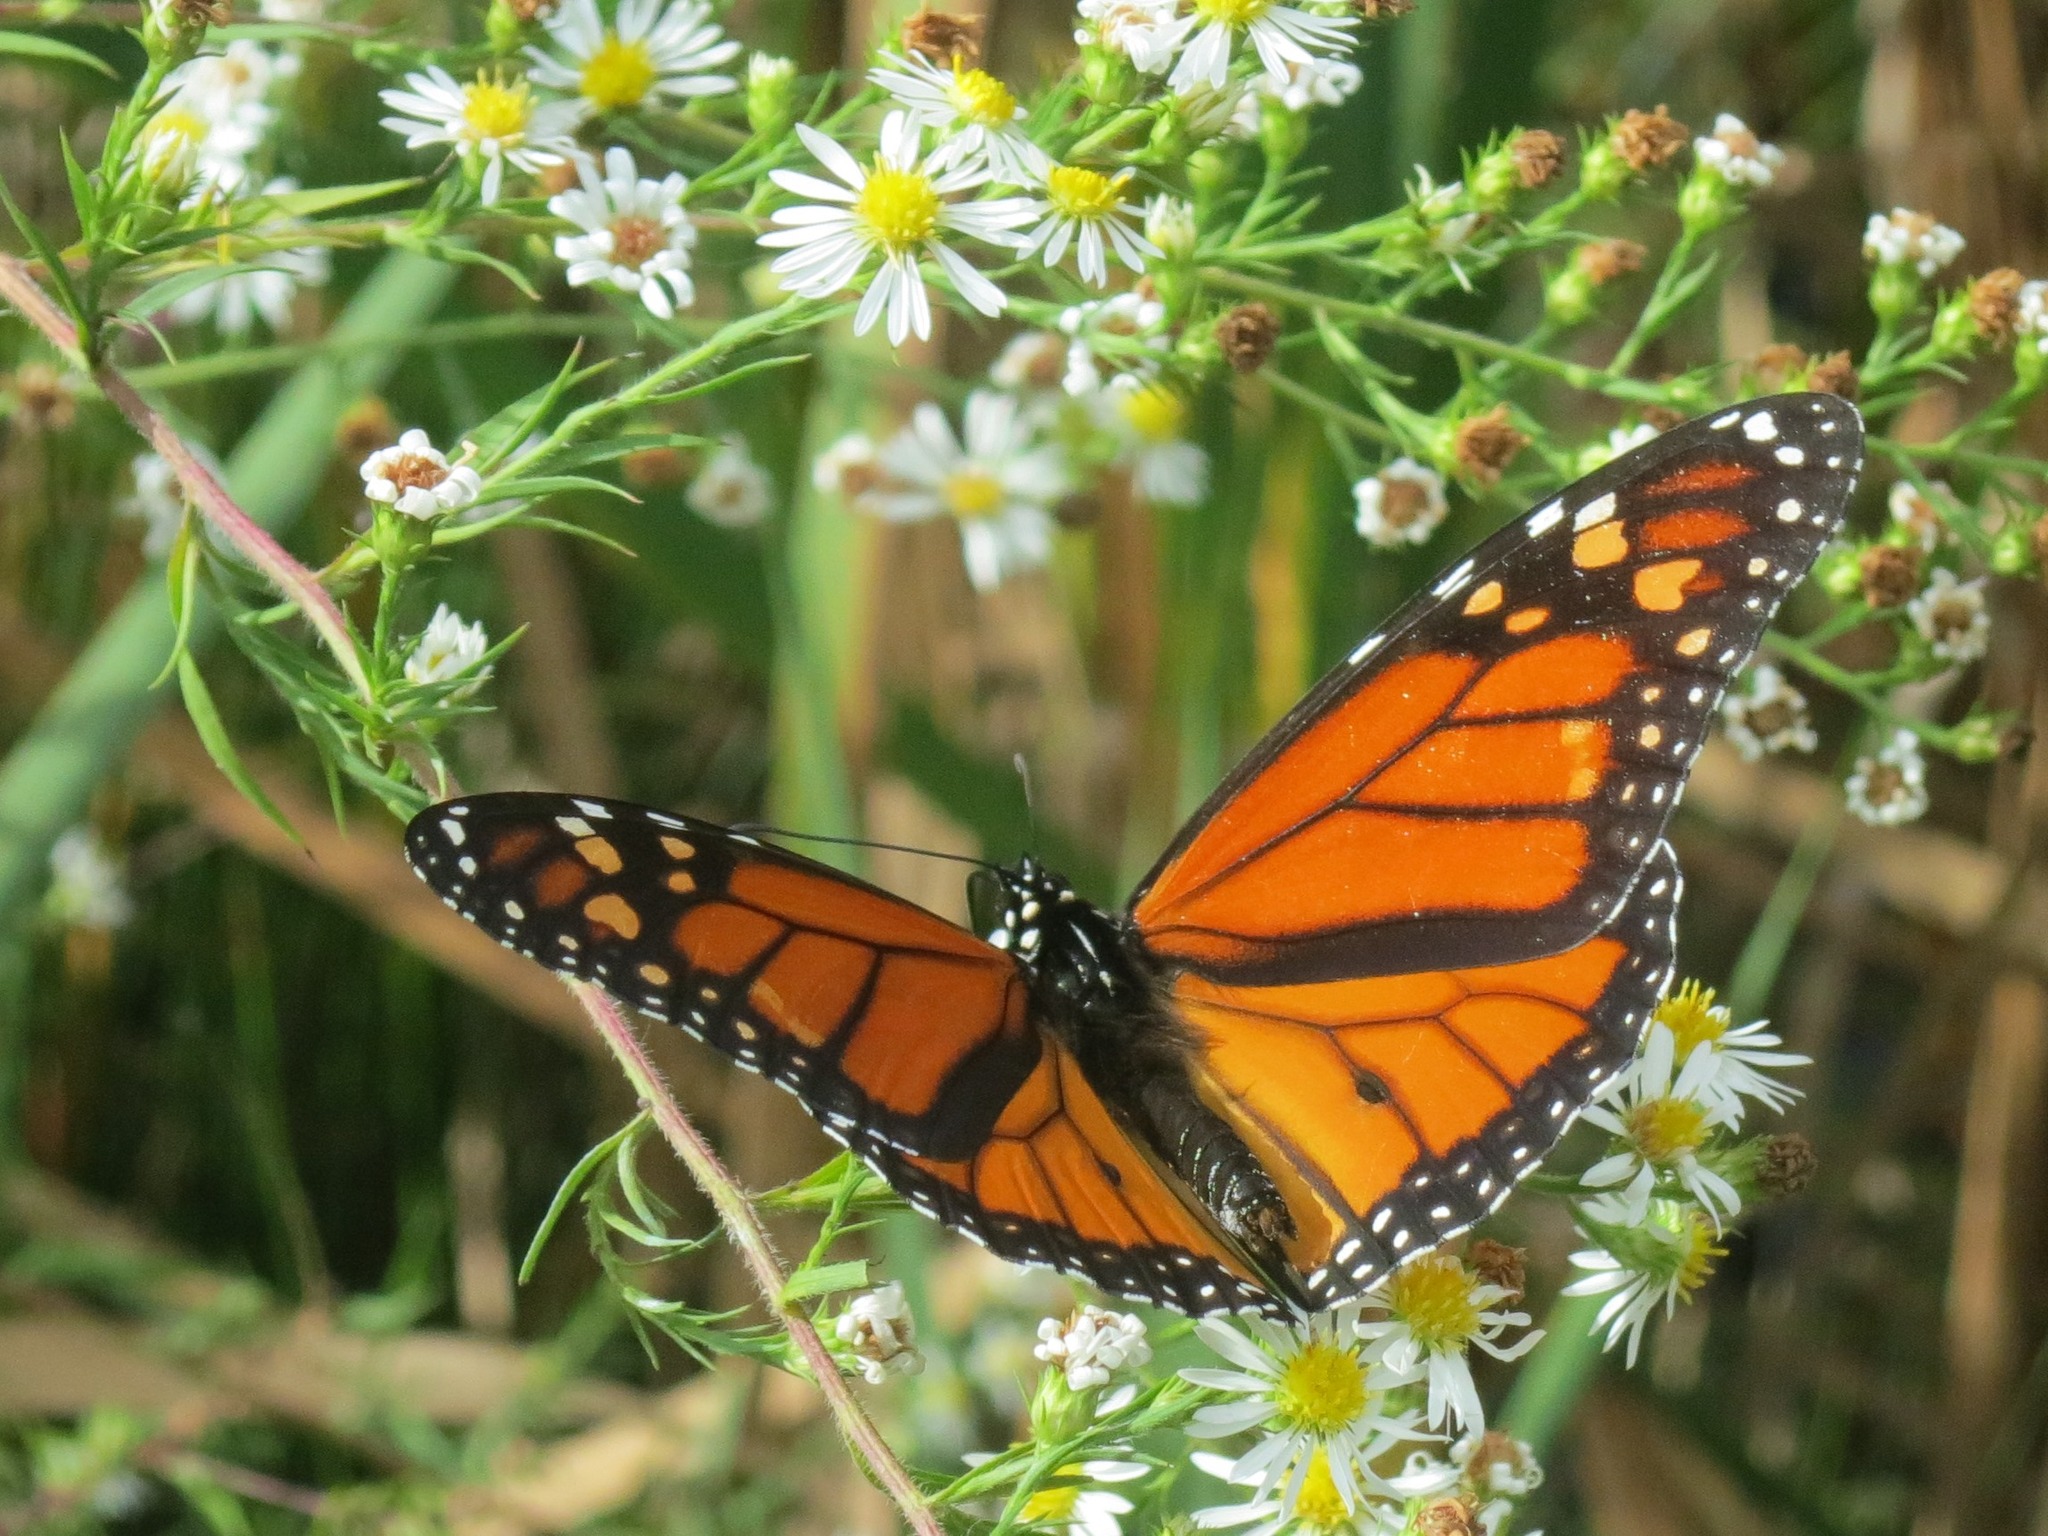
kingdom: Animalia
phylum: Arthropoda
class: Insecta
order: Lepidoptera
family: Nymphalidae
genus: Danaus
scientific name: Danaus plexippus
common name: Monarch
